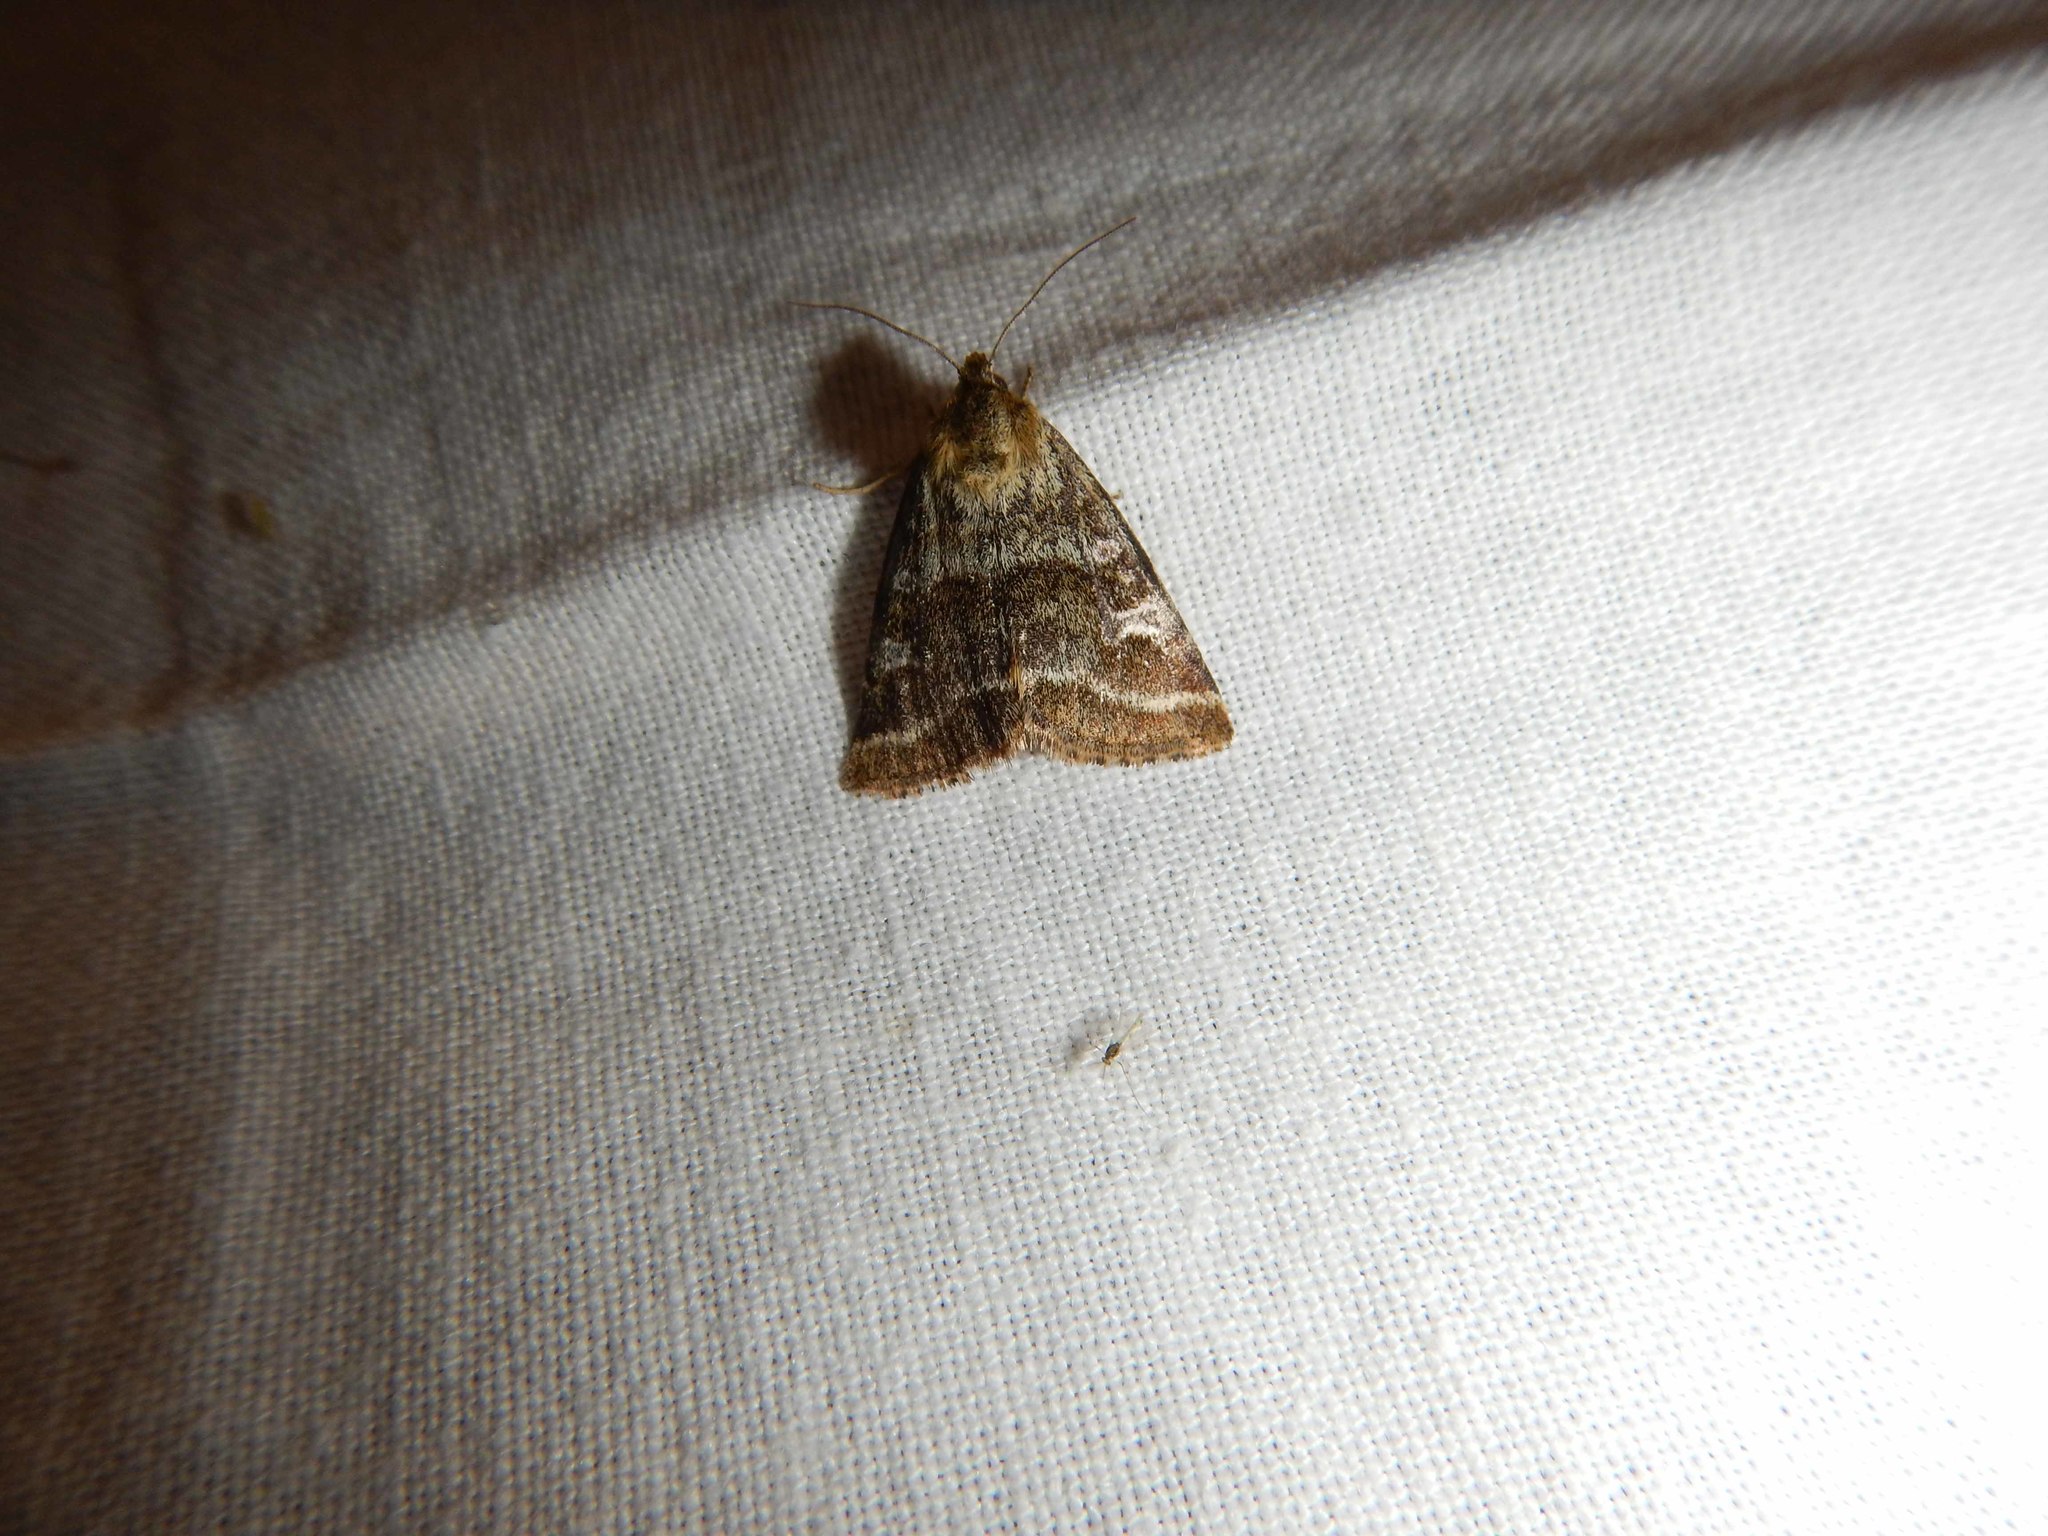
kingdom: Animalia
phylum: Arthropoda
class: Insecta
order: Lepidoptera
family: Noctuidae
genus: Synthymia
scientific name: Synthymia fixa
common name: Goldwing
